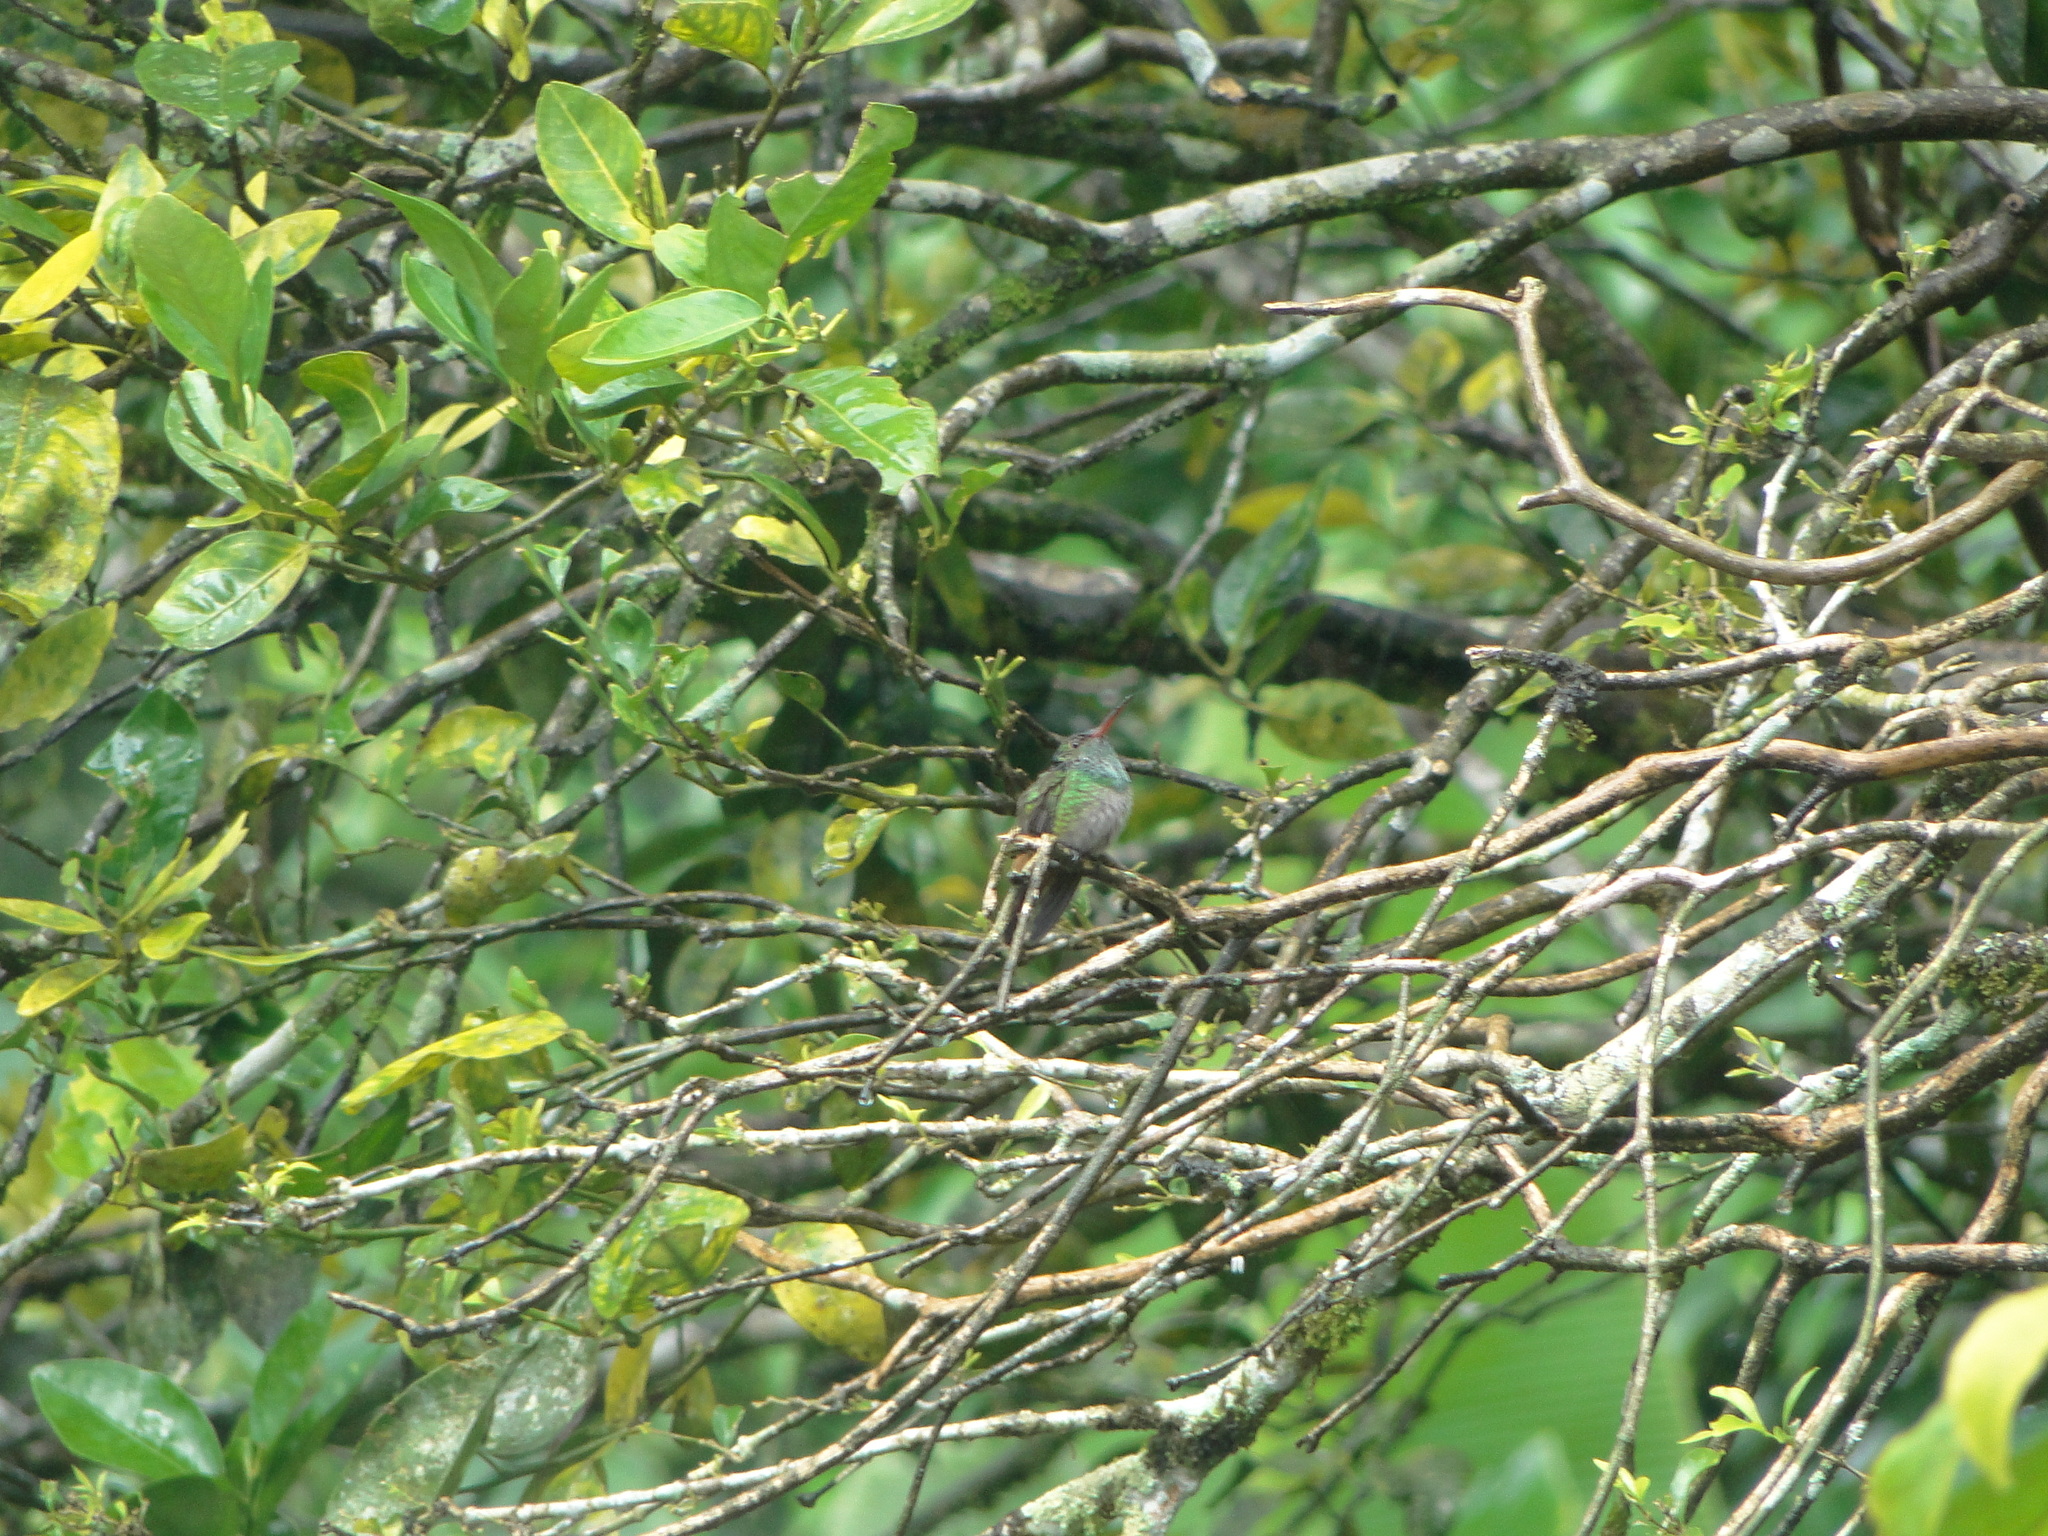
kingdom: Animalia
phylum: Chordata
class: Aves
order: Apodiformes
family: Trochilidae
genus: Amazilia
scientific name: Amazilia tzacatl
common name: Rufous-tailed hummingbird
